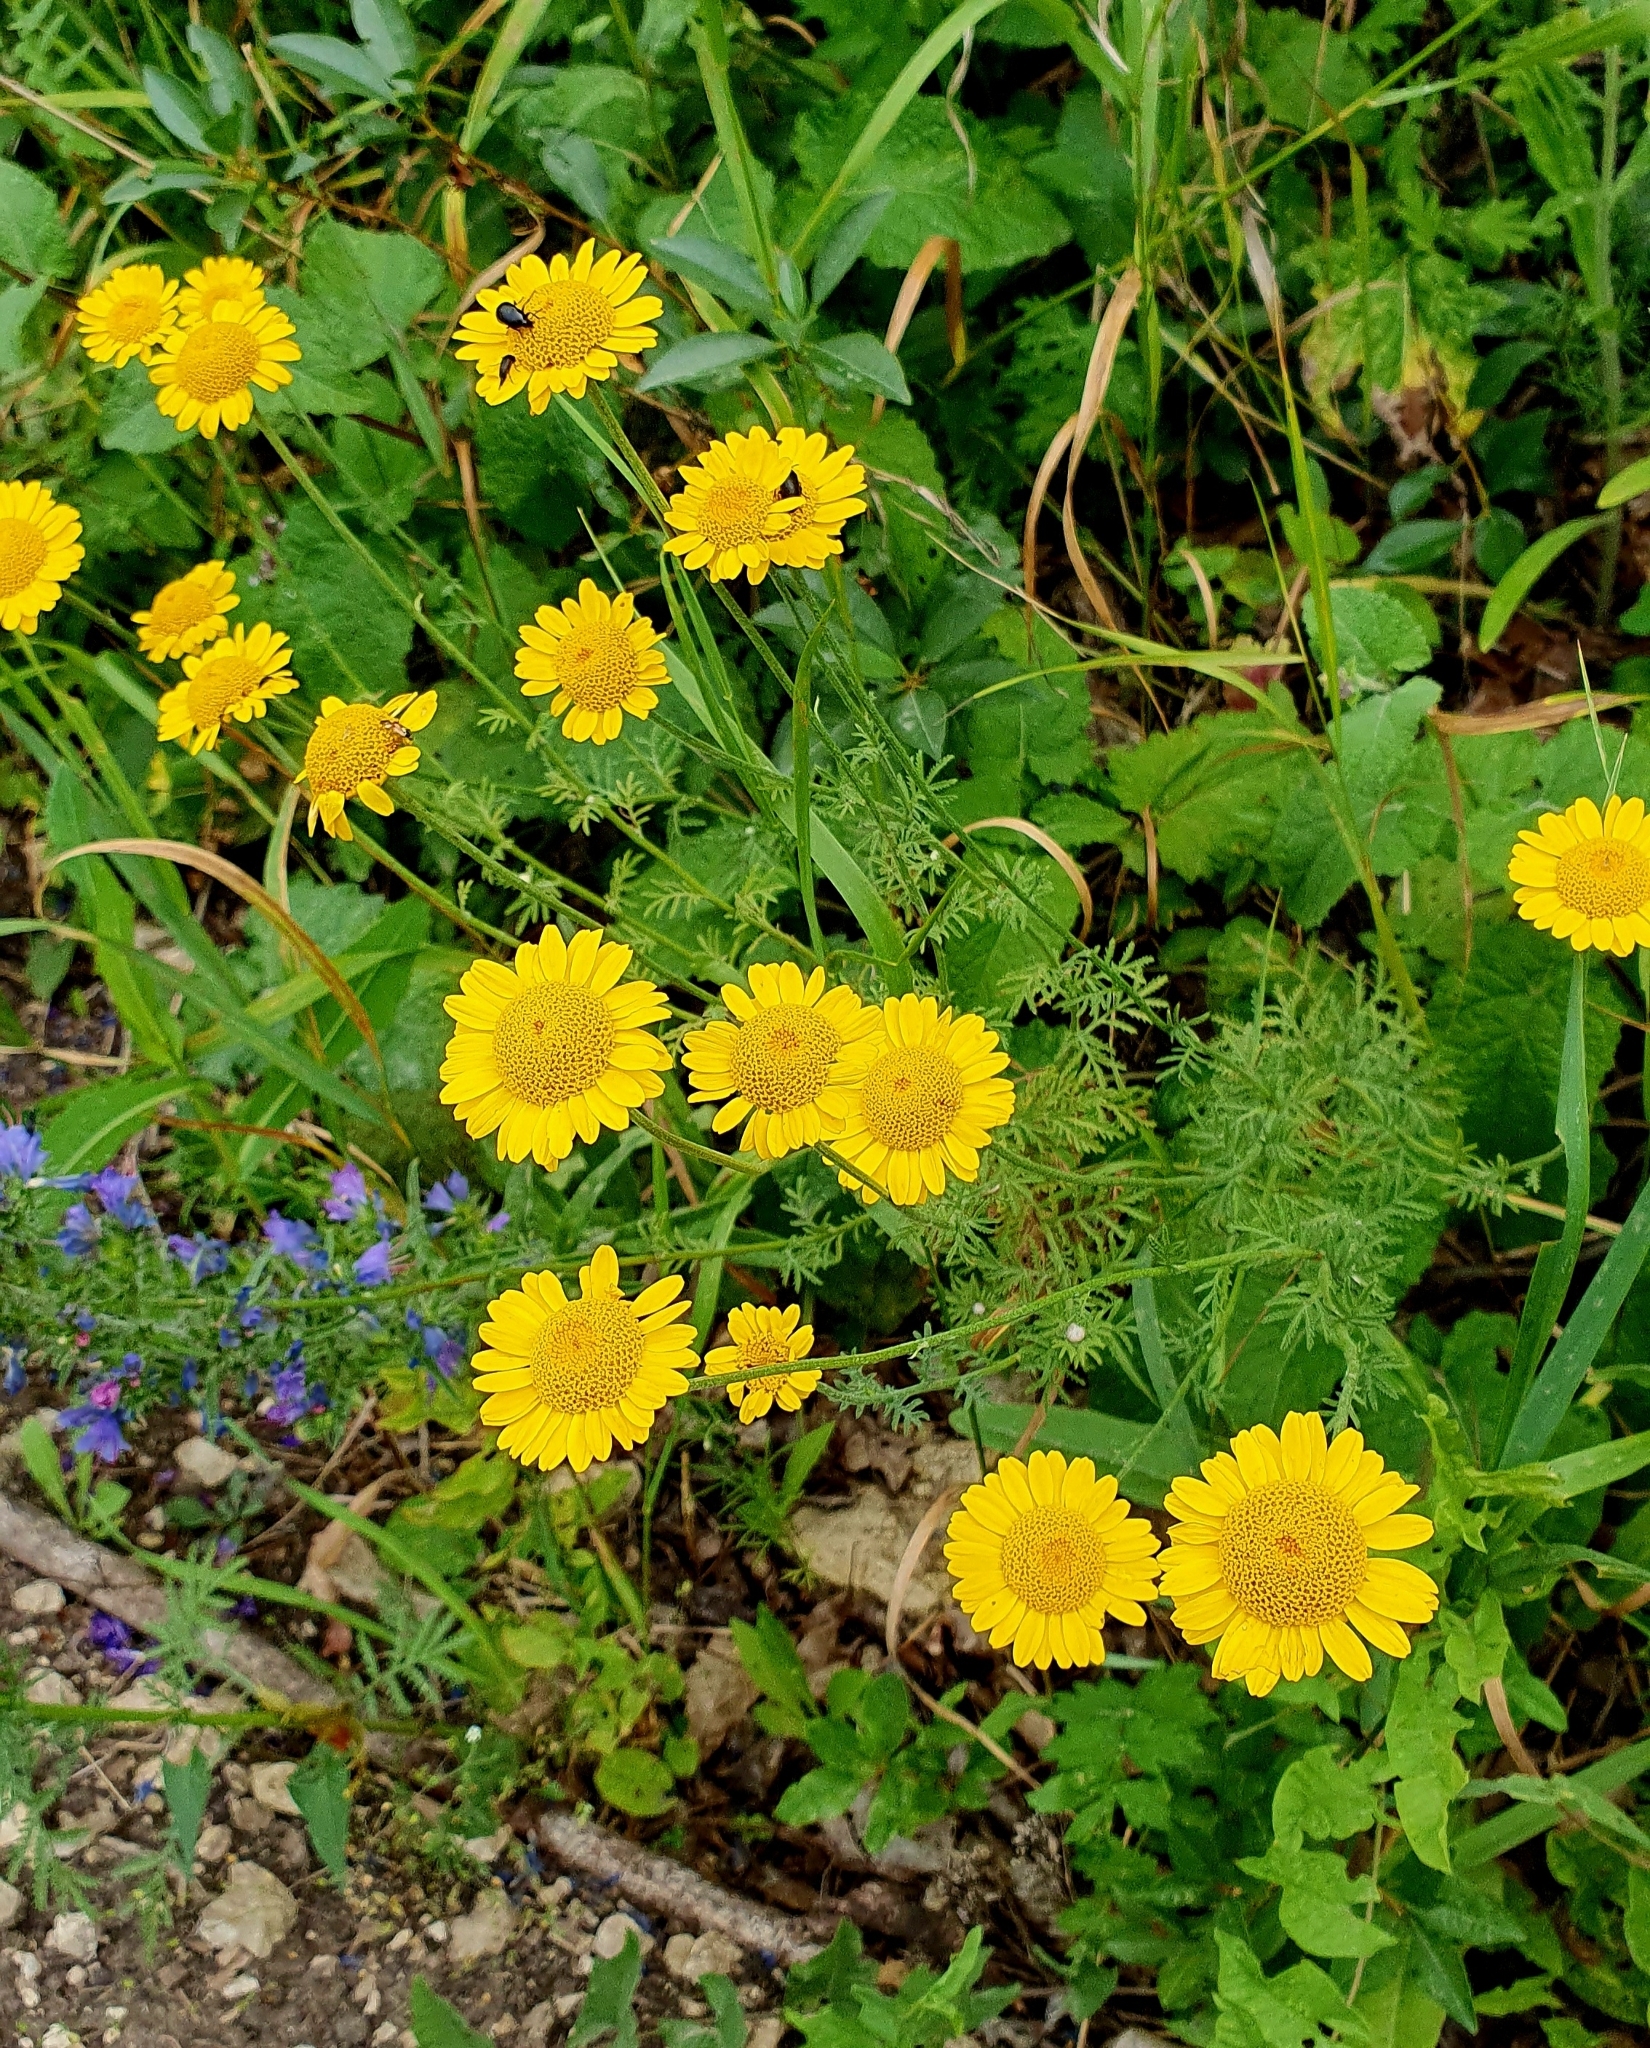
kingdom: Plantae
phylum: Tracheophyta
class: Magnoliopsida
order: Asterales
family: Asteraceae
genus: Cota
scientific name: Cota tinctoria
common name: Golden chamomile
